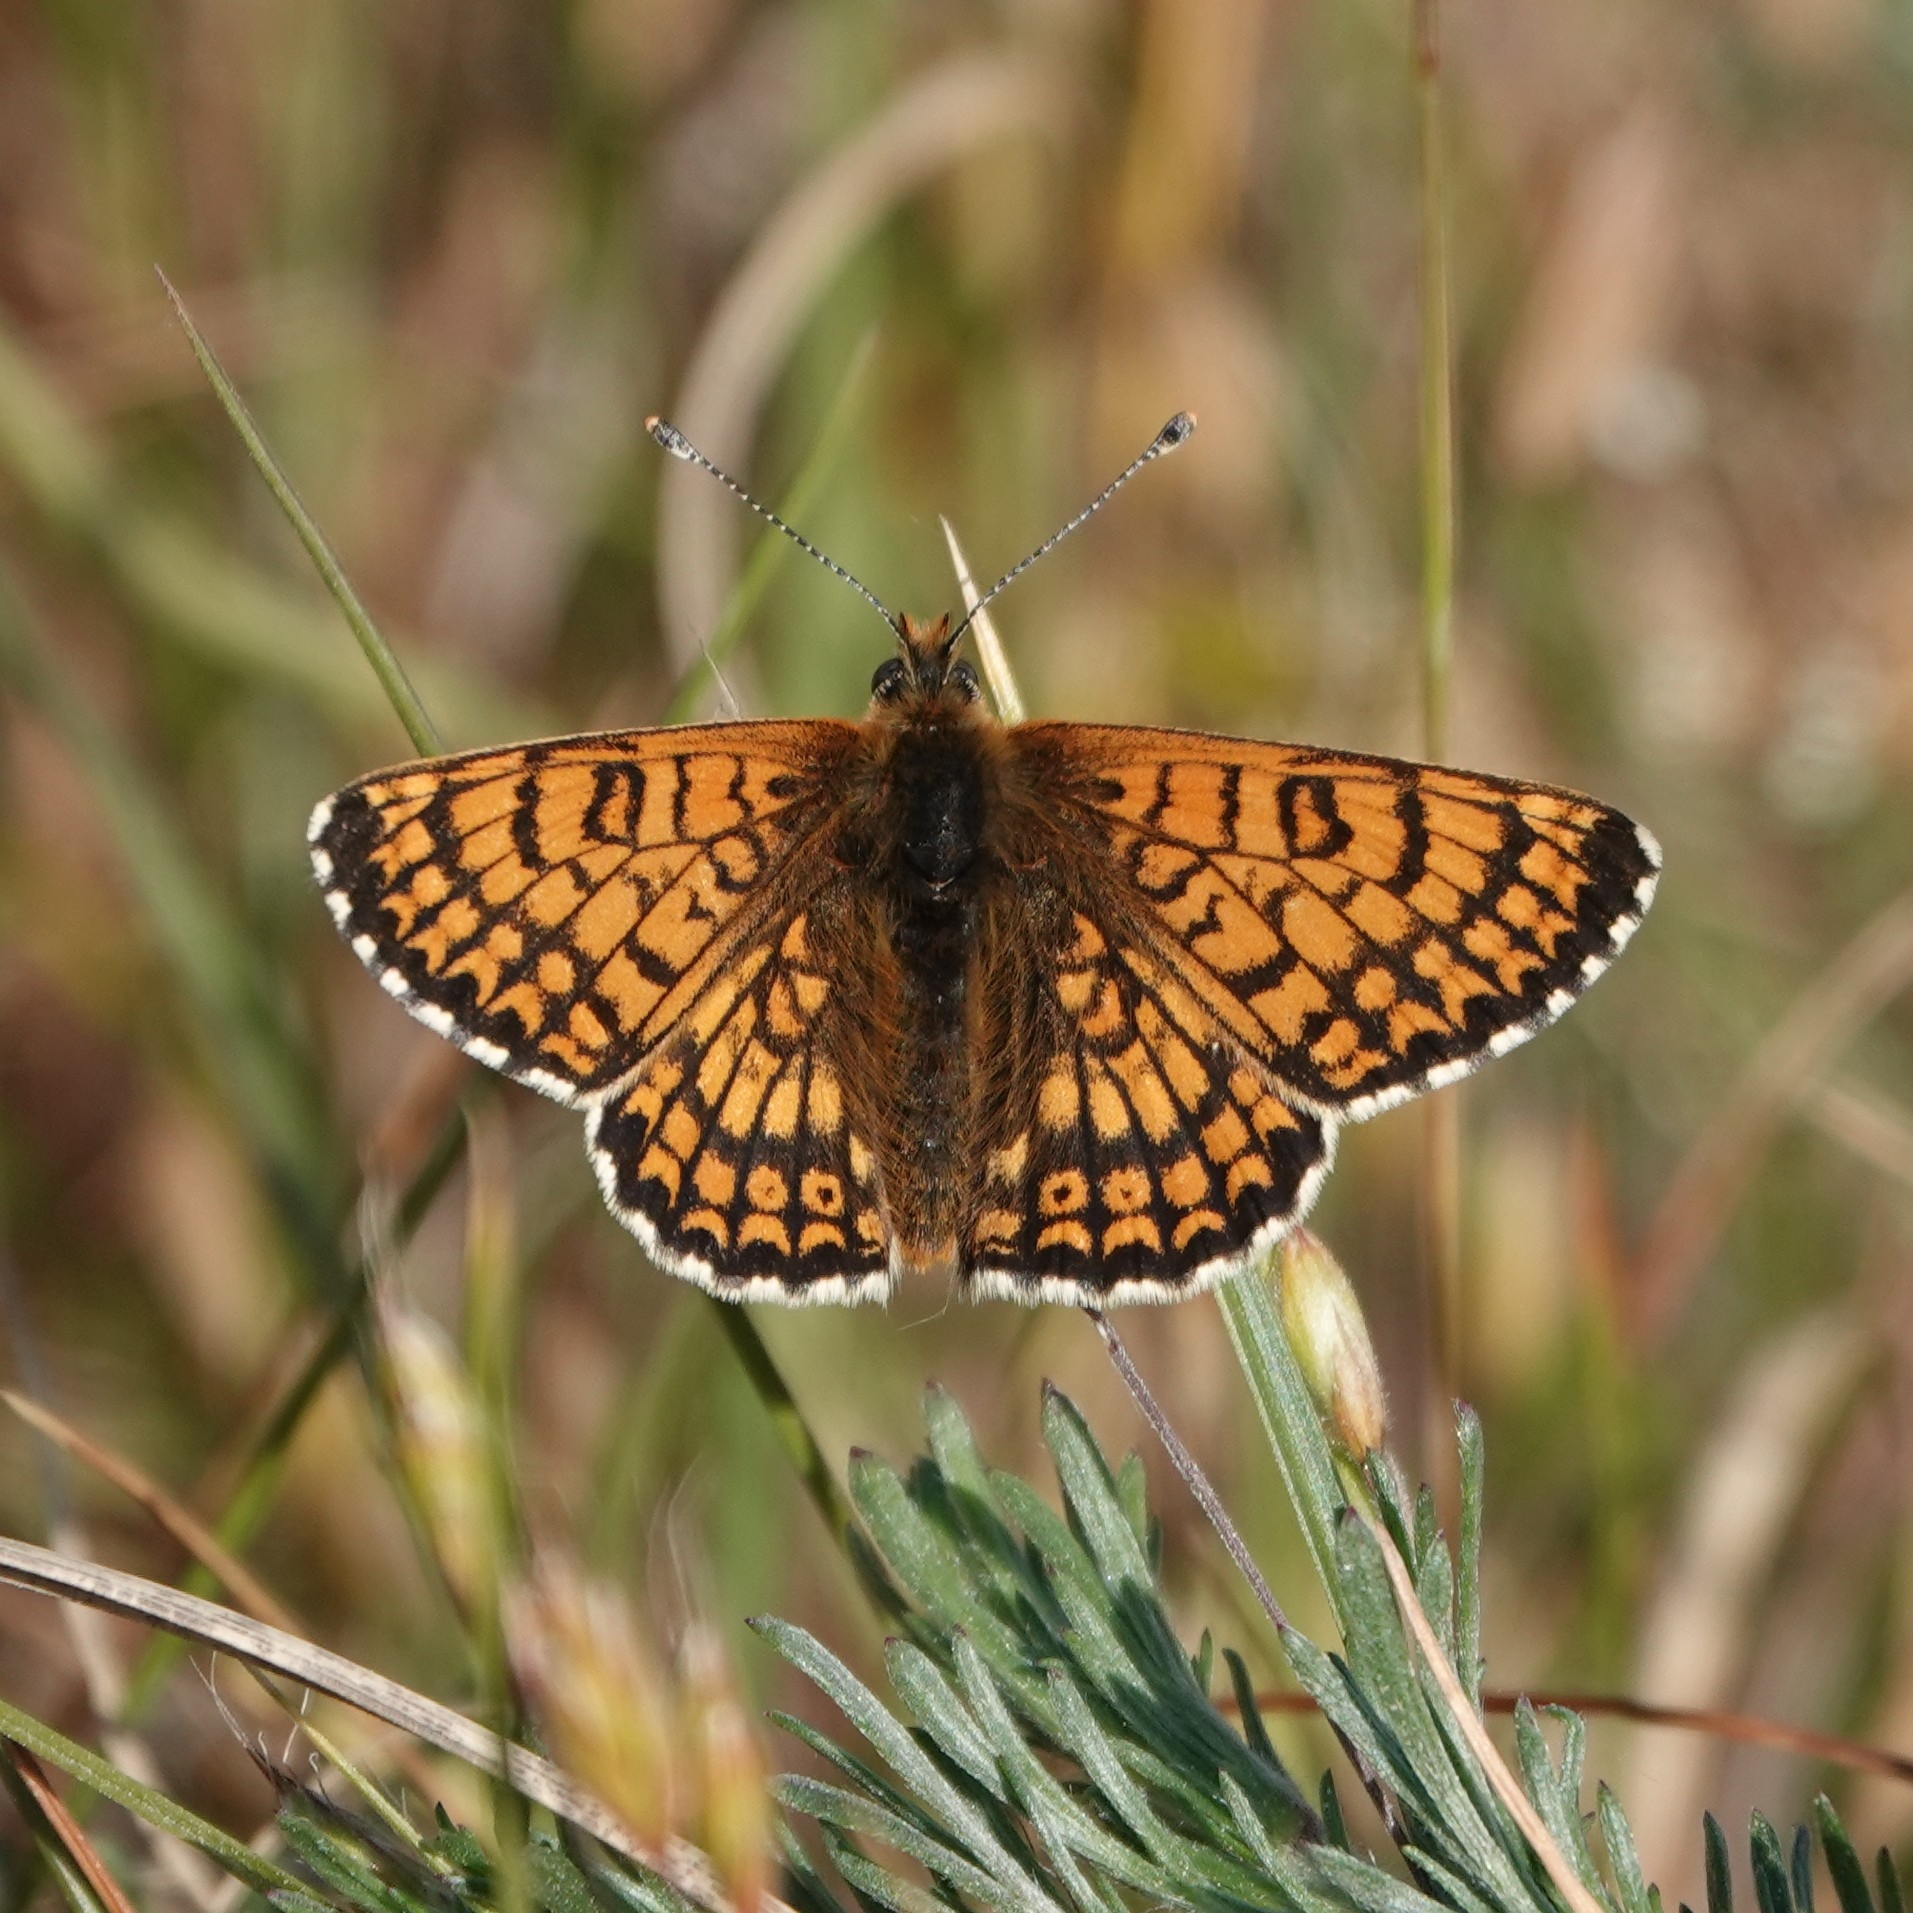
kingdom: Animalia
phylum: Arthropoda
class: Insecta
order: Lepidoptera
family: Nymphalidae
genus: Melitaea
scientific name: Melitaea cinxia
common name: Glanville fritillary
